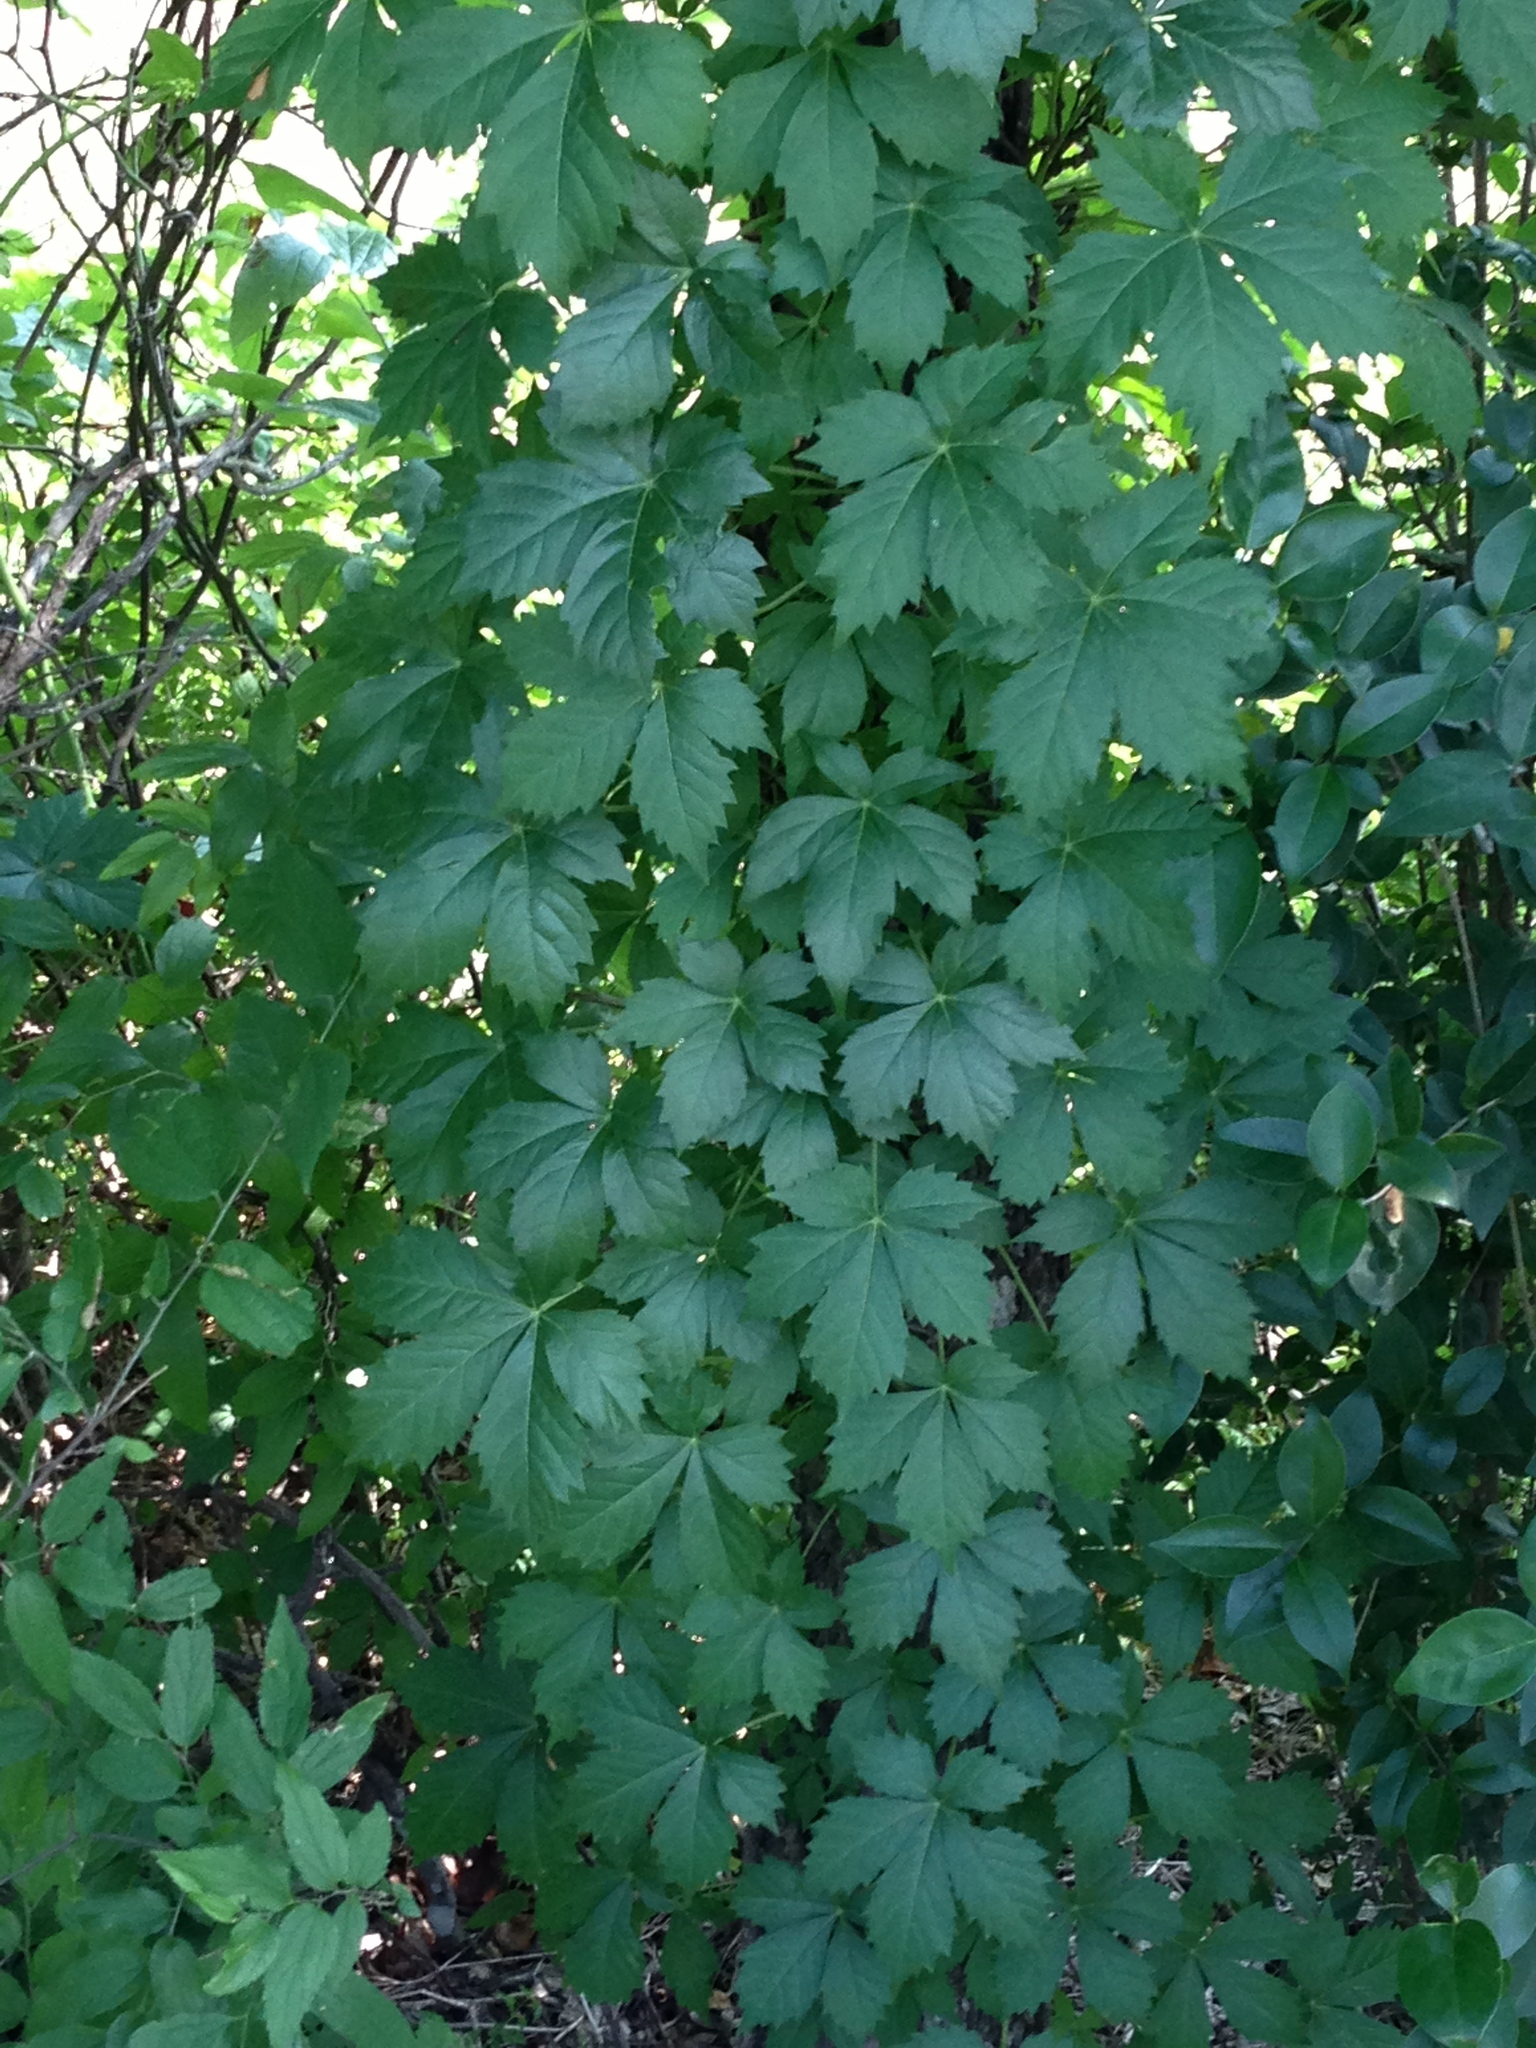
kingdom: Plantae
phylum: Tracheophyta
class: Magnoliopsida
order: Vitales
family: Vitaceae
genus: Parthenocissus
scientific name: Parthenocissus quinquefolia
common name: Virginia-creeper
